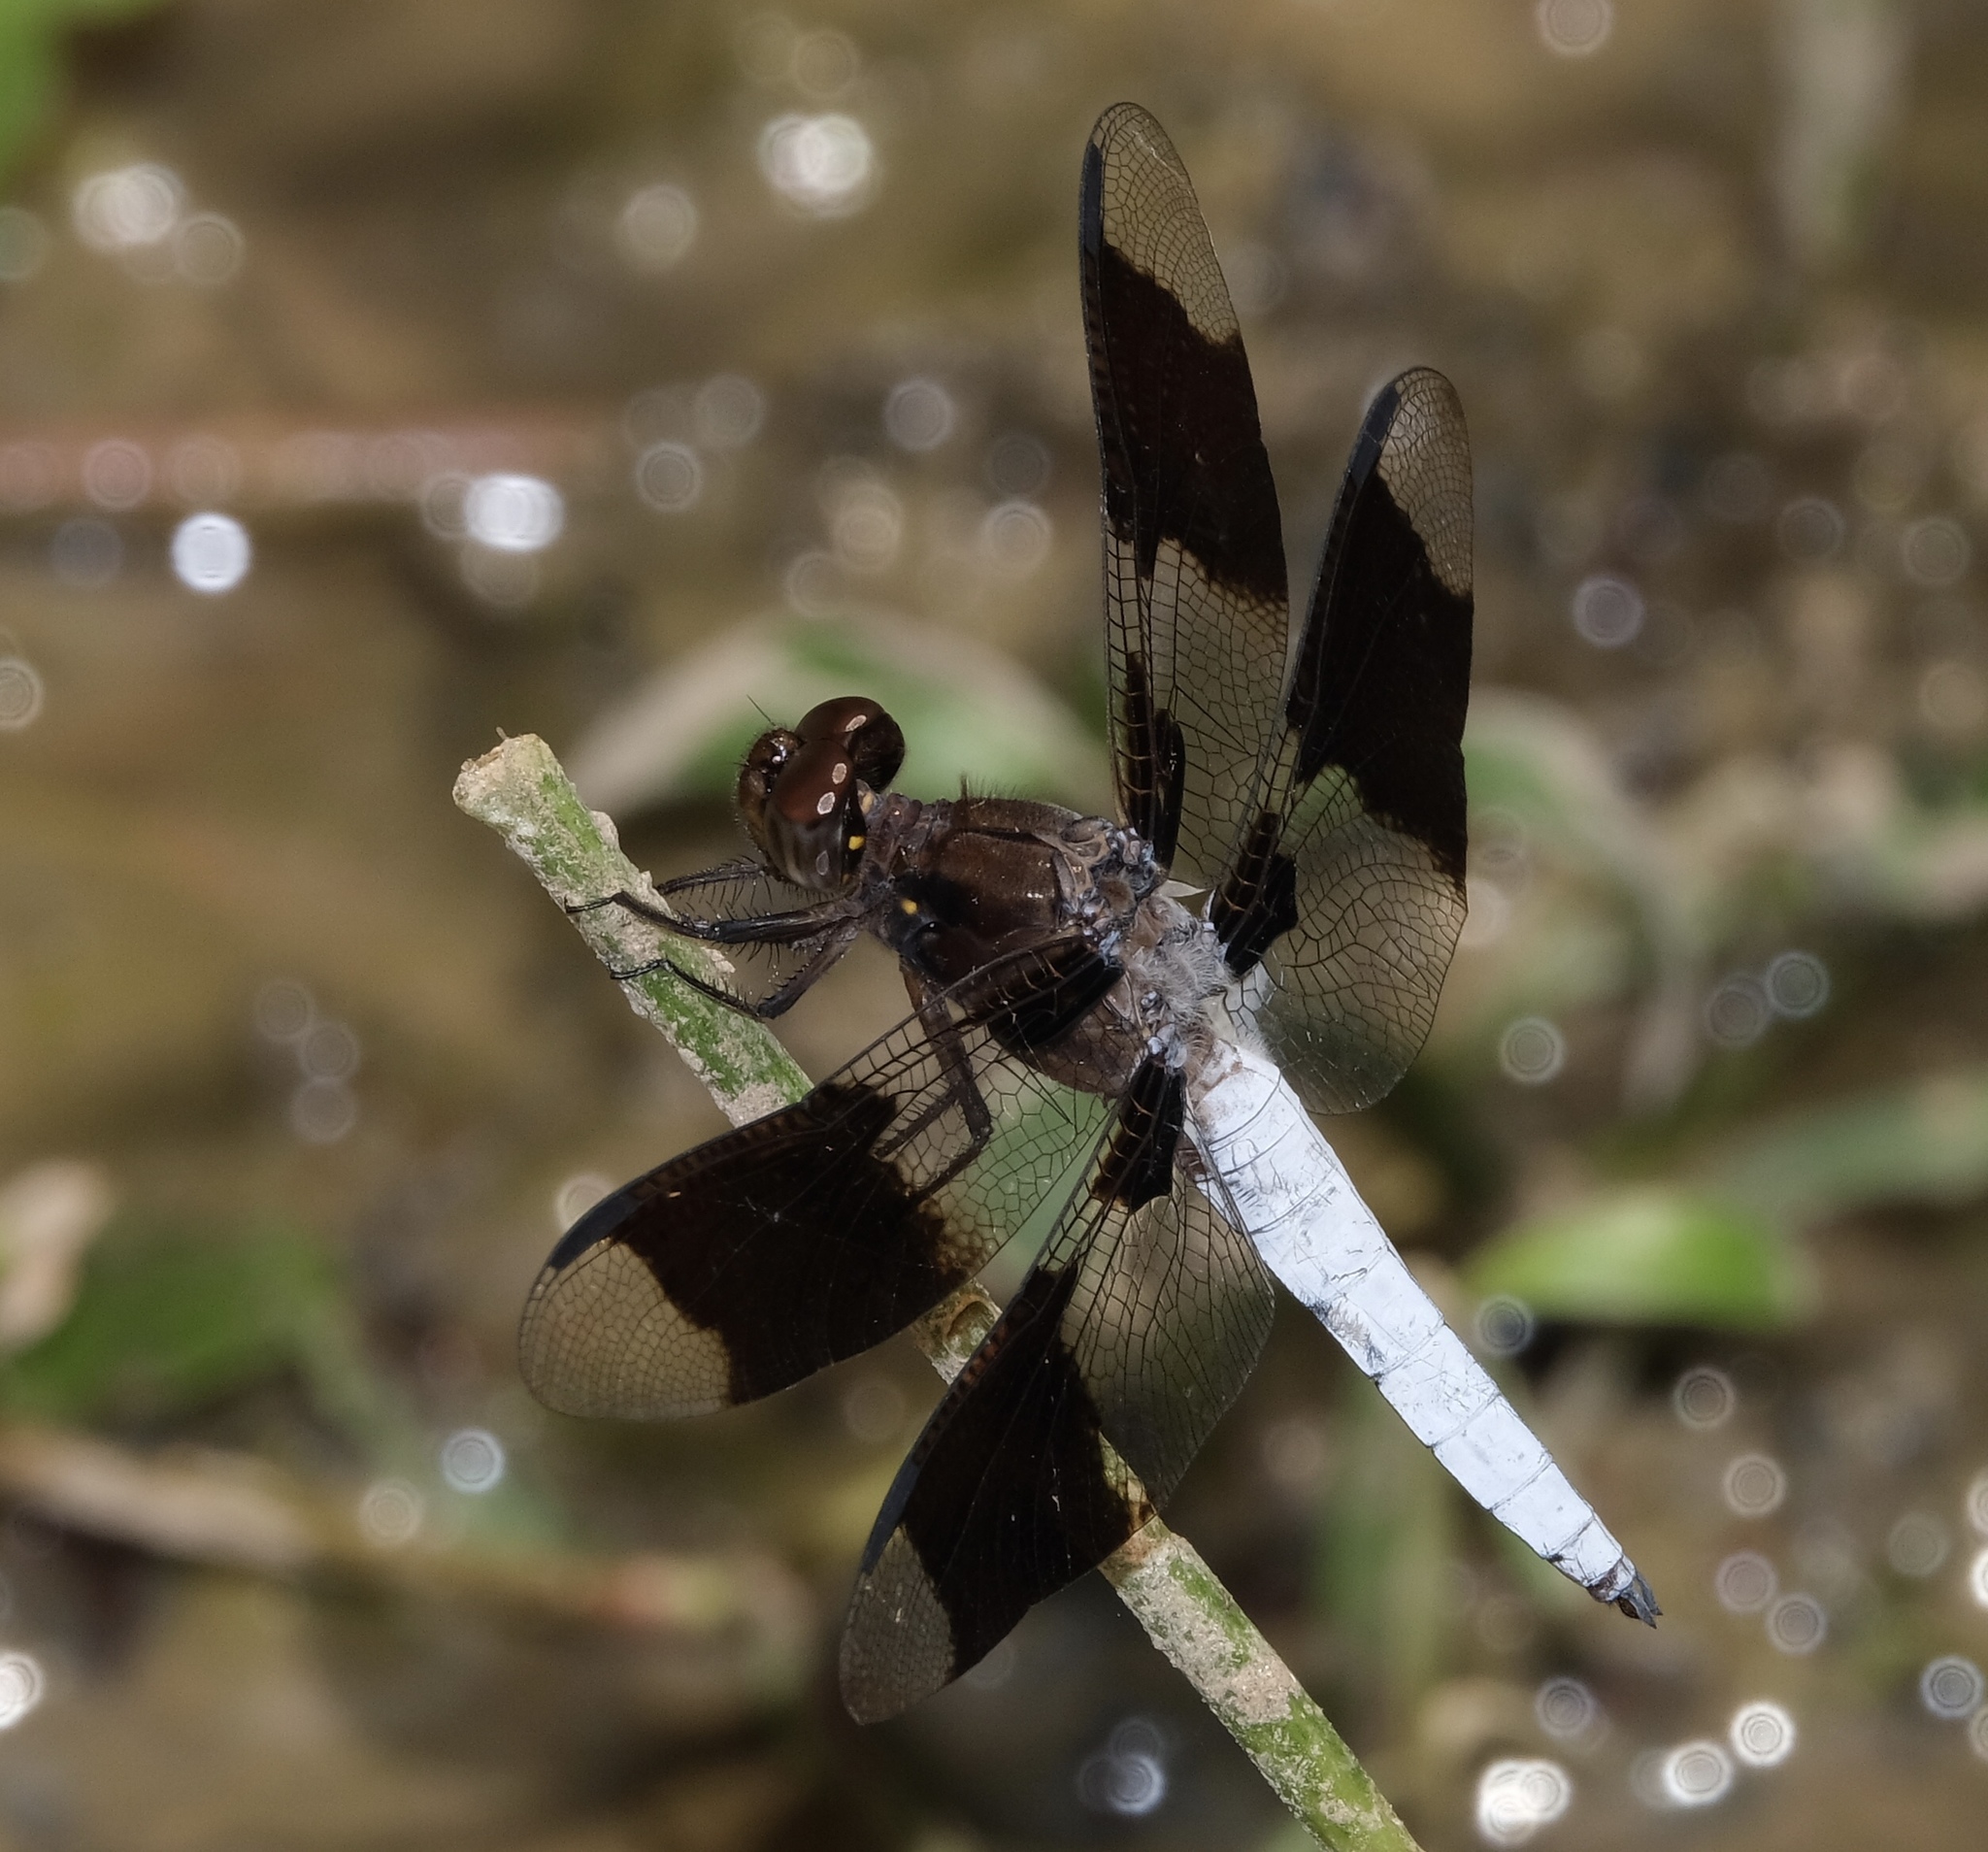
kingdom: Animalia
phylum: Arthropoda
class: Insecta
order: Odonata
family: Libellulidae
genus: Plathemis
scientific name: Plathemis lydia
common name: Common whitetail
